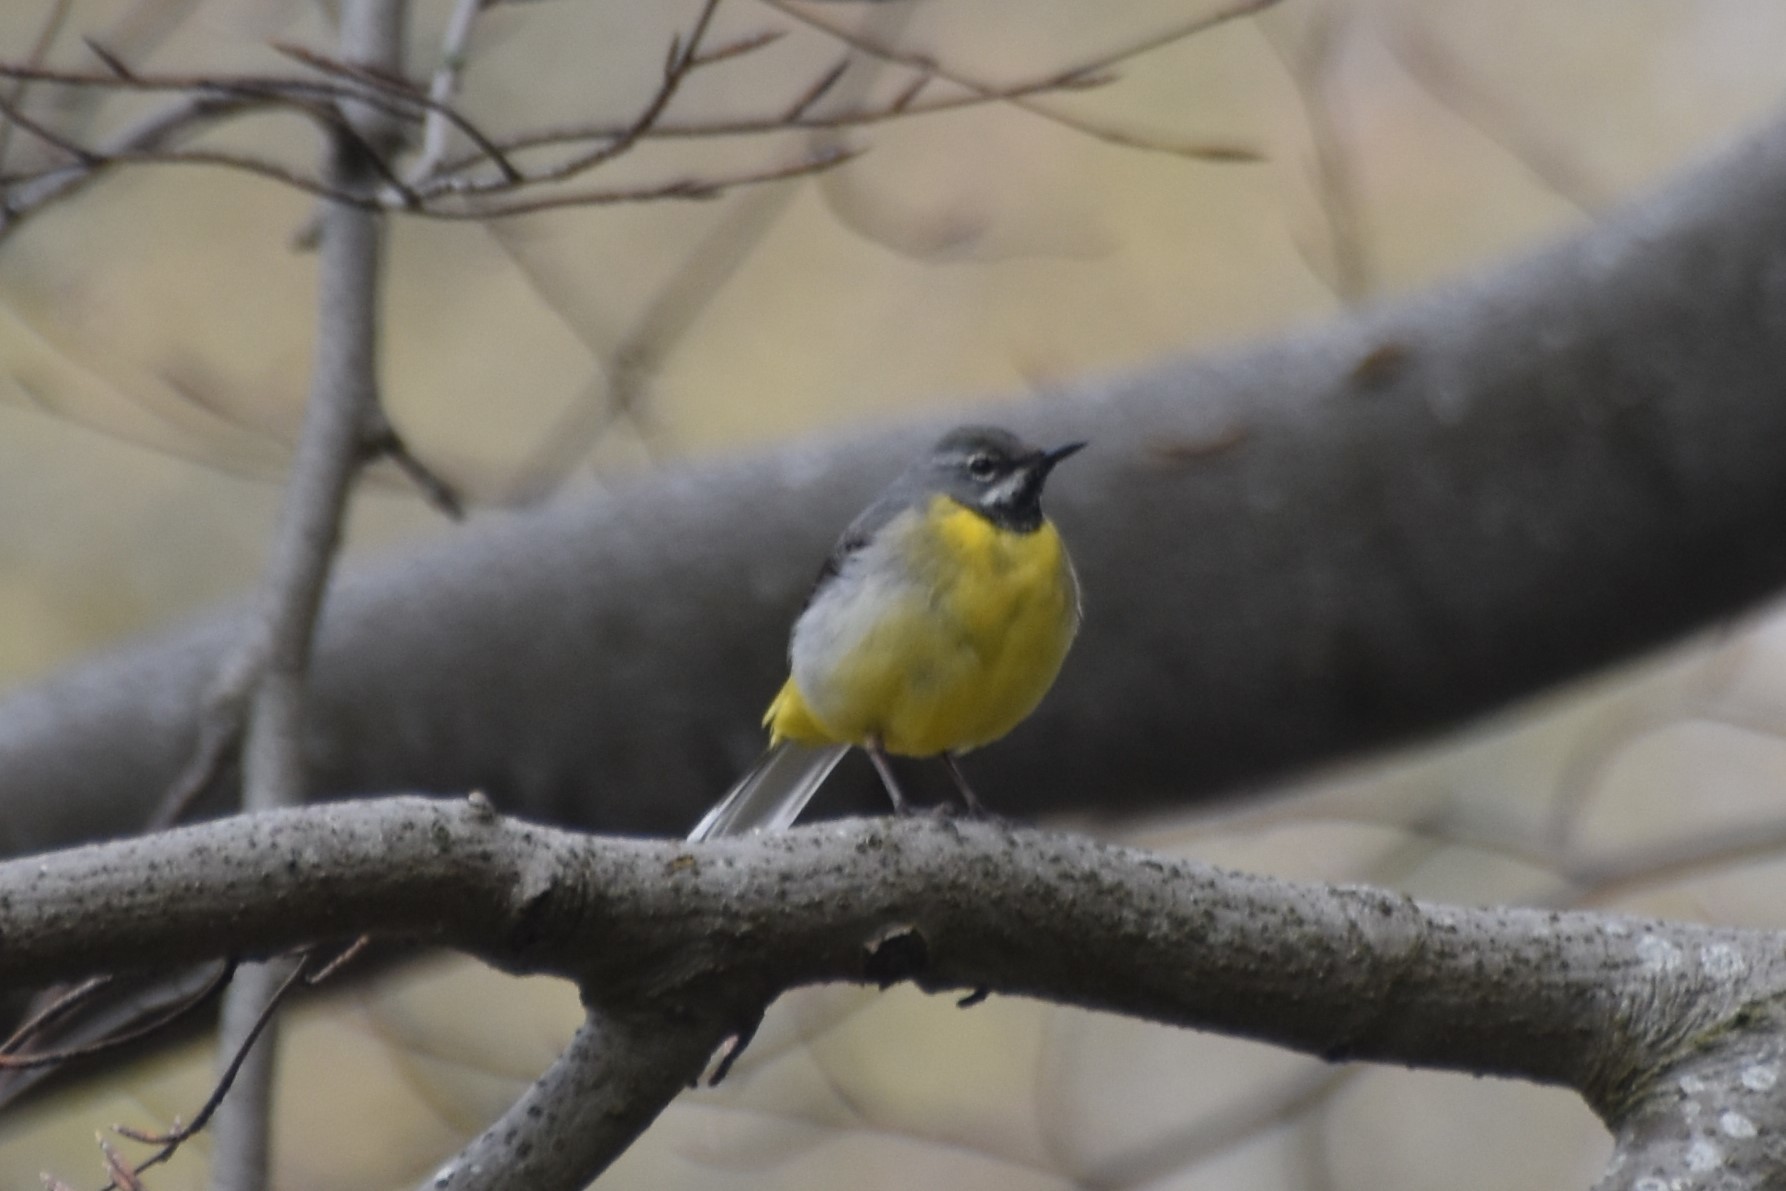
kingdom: Animalia
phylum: Chordata
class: Aves
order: Passeriformes
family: Motacillidae
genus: Motacilla
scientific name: Motacilla cinerea
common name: Grey wagtail
